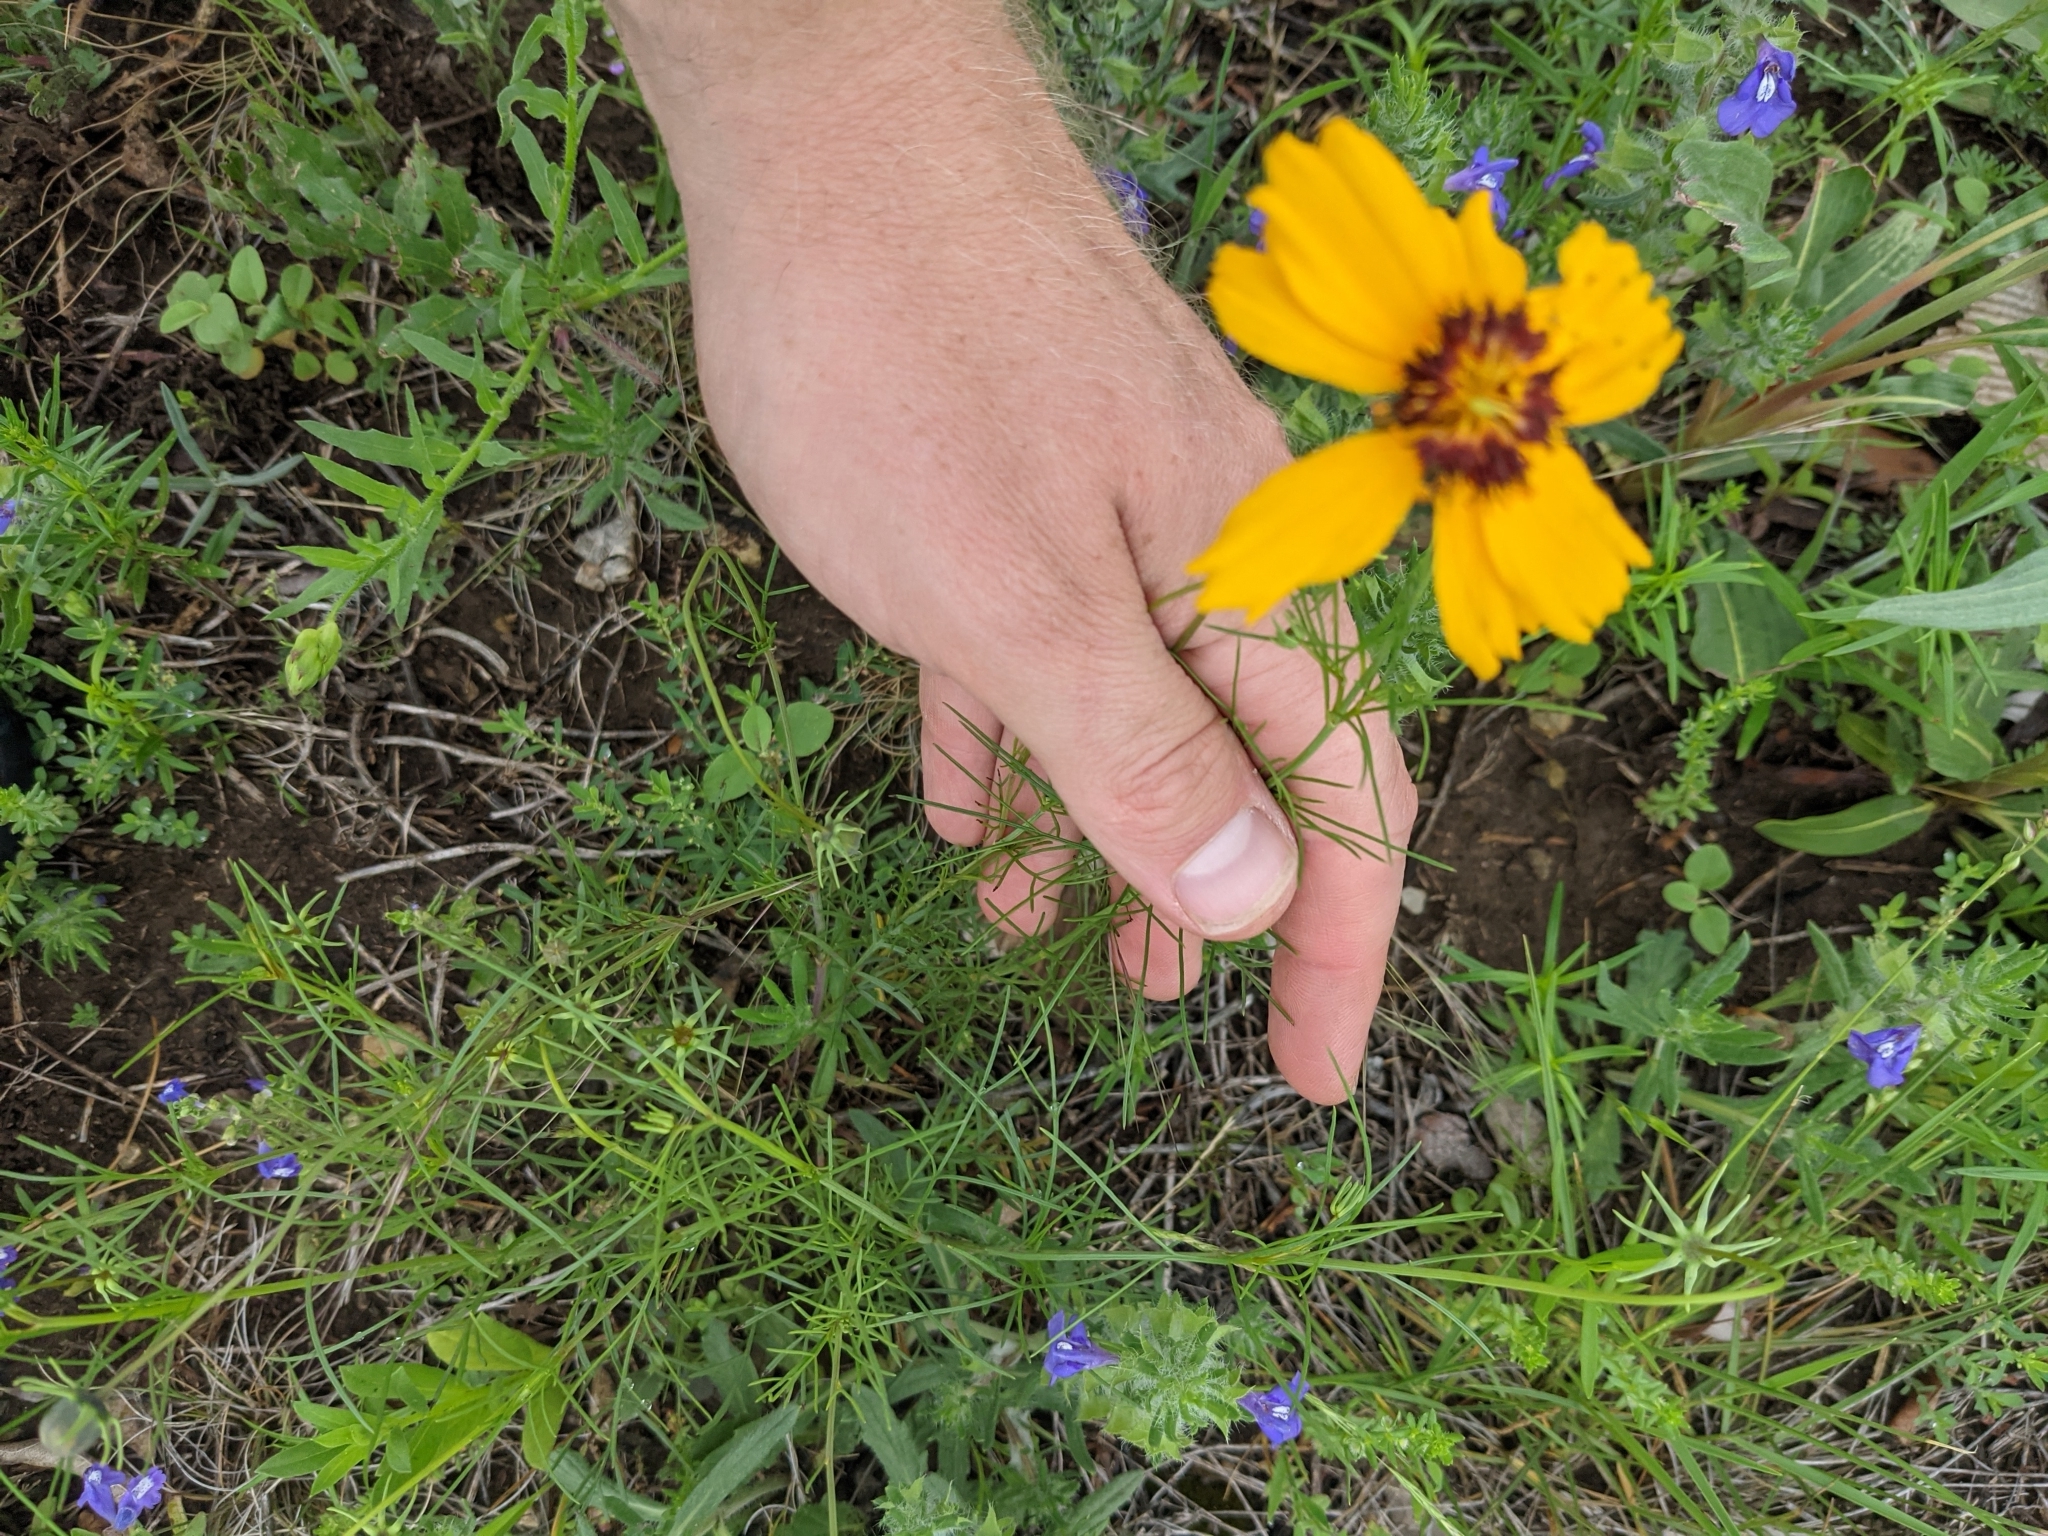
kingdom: Plantae
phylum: Tracheophyta
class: Magnoliopsida
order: Asterales
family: Asteraceae
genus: Thelesperma
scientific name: Thelesperma filifolium
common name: Stiff greenthread
